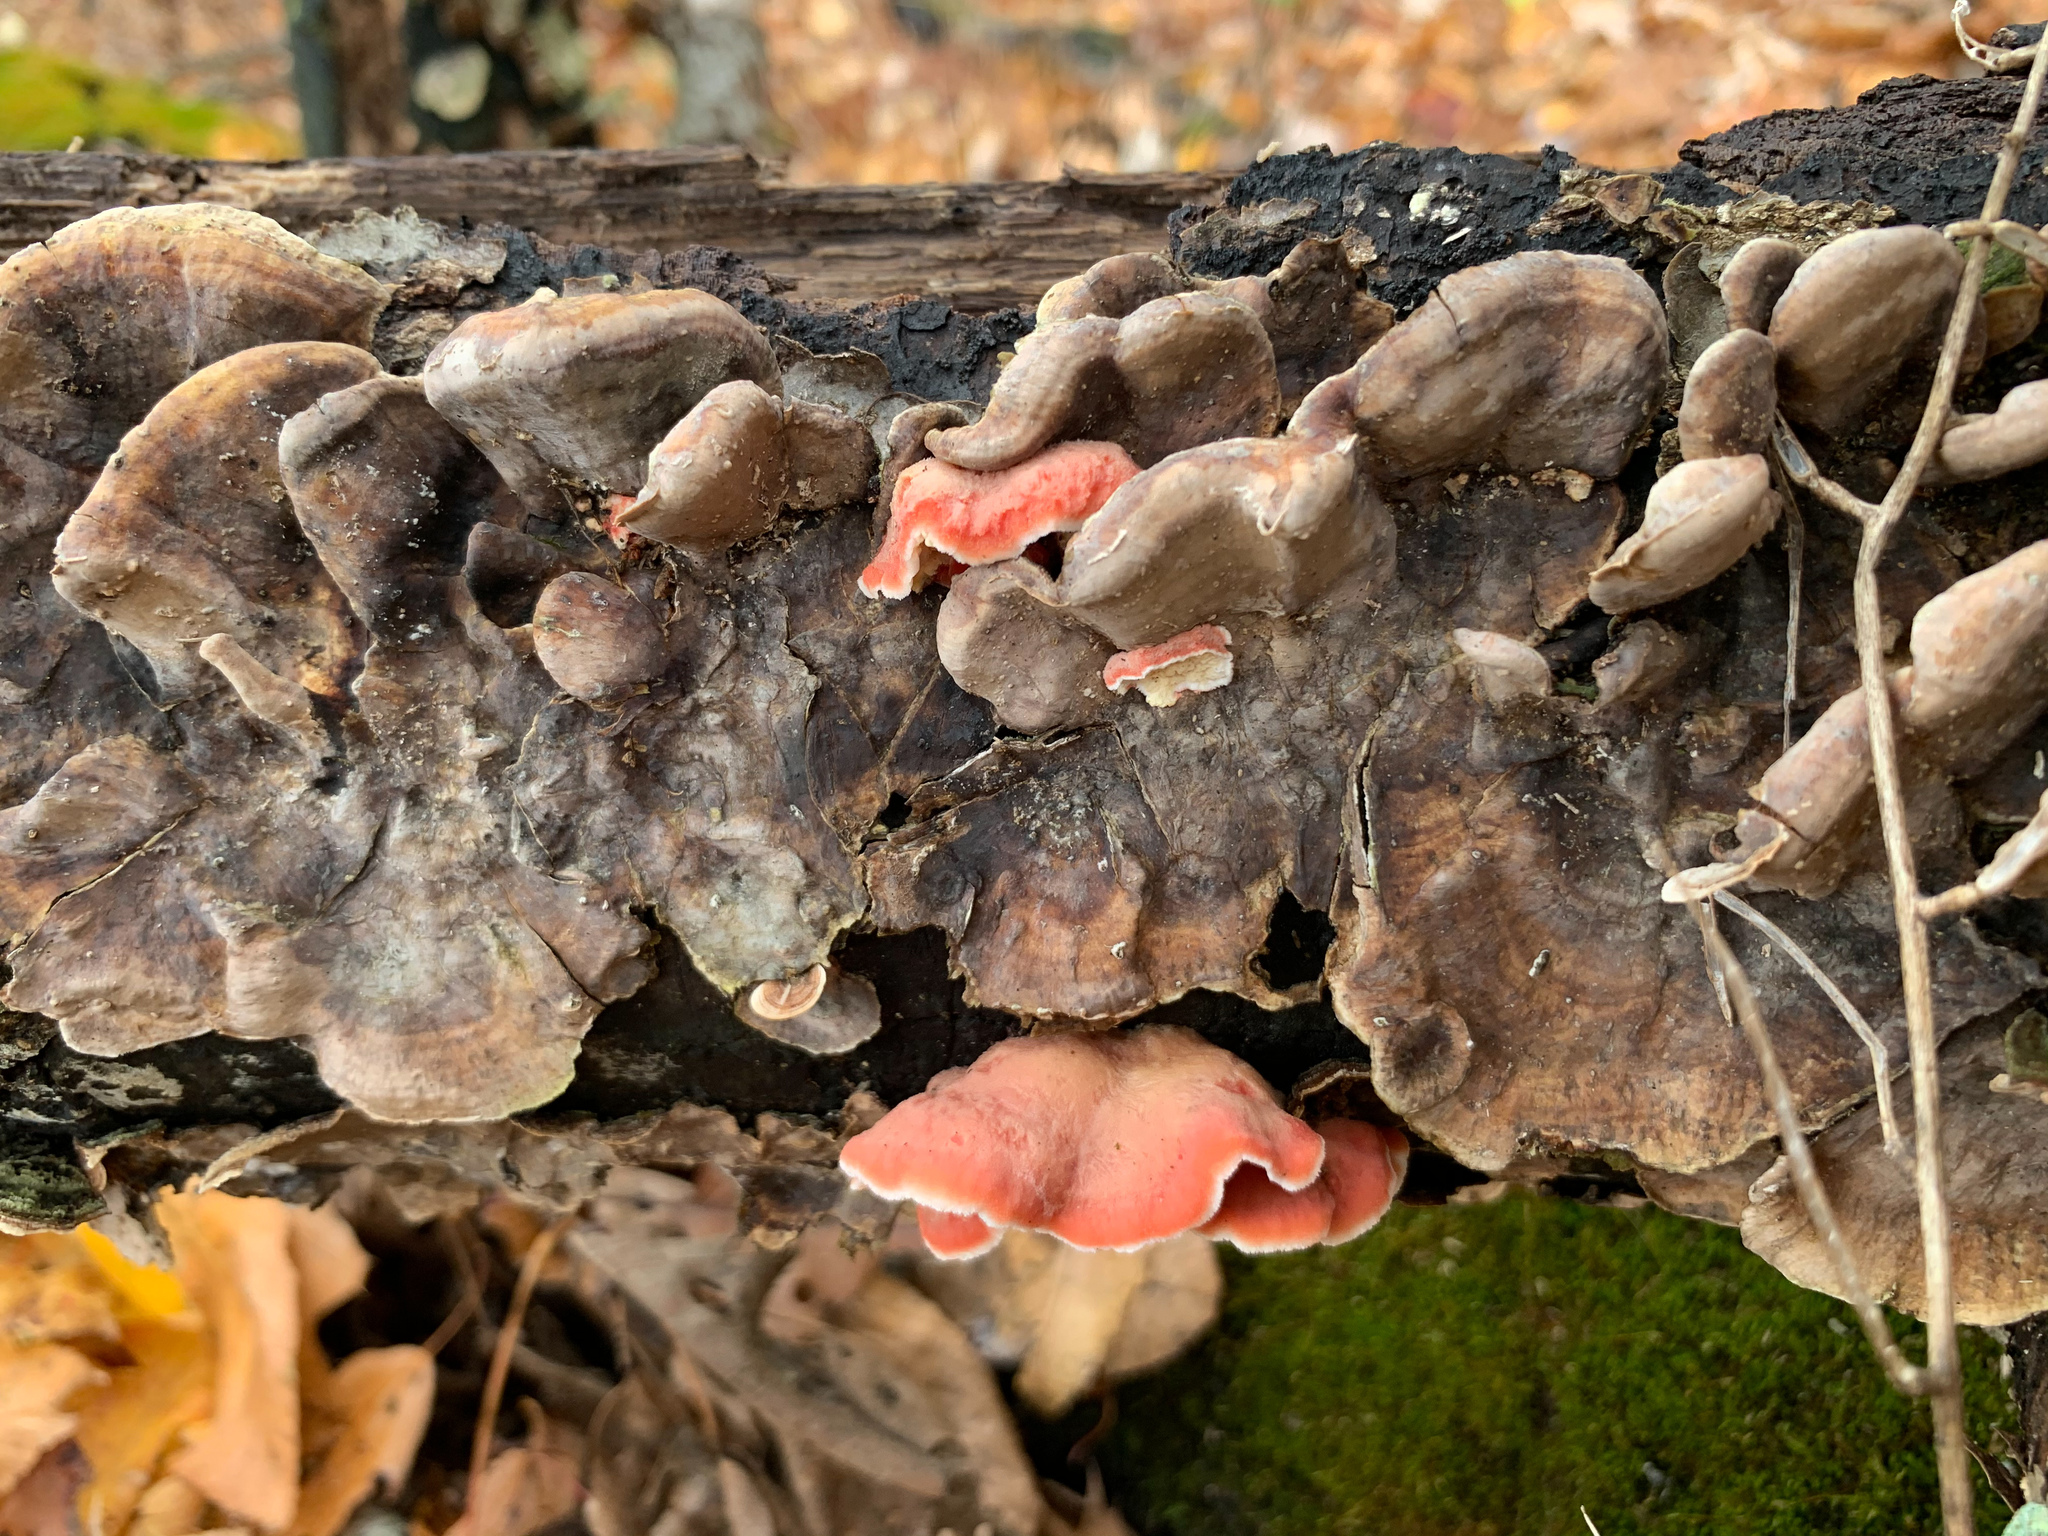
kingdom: Fungi
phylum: Basidiomycota
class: Agaricomycetes
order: Polyporales
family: Irpicaceae
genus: Byssomerulius
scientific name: Byssomerulius incarnatus
